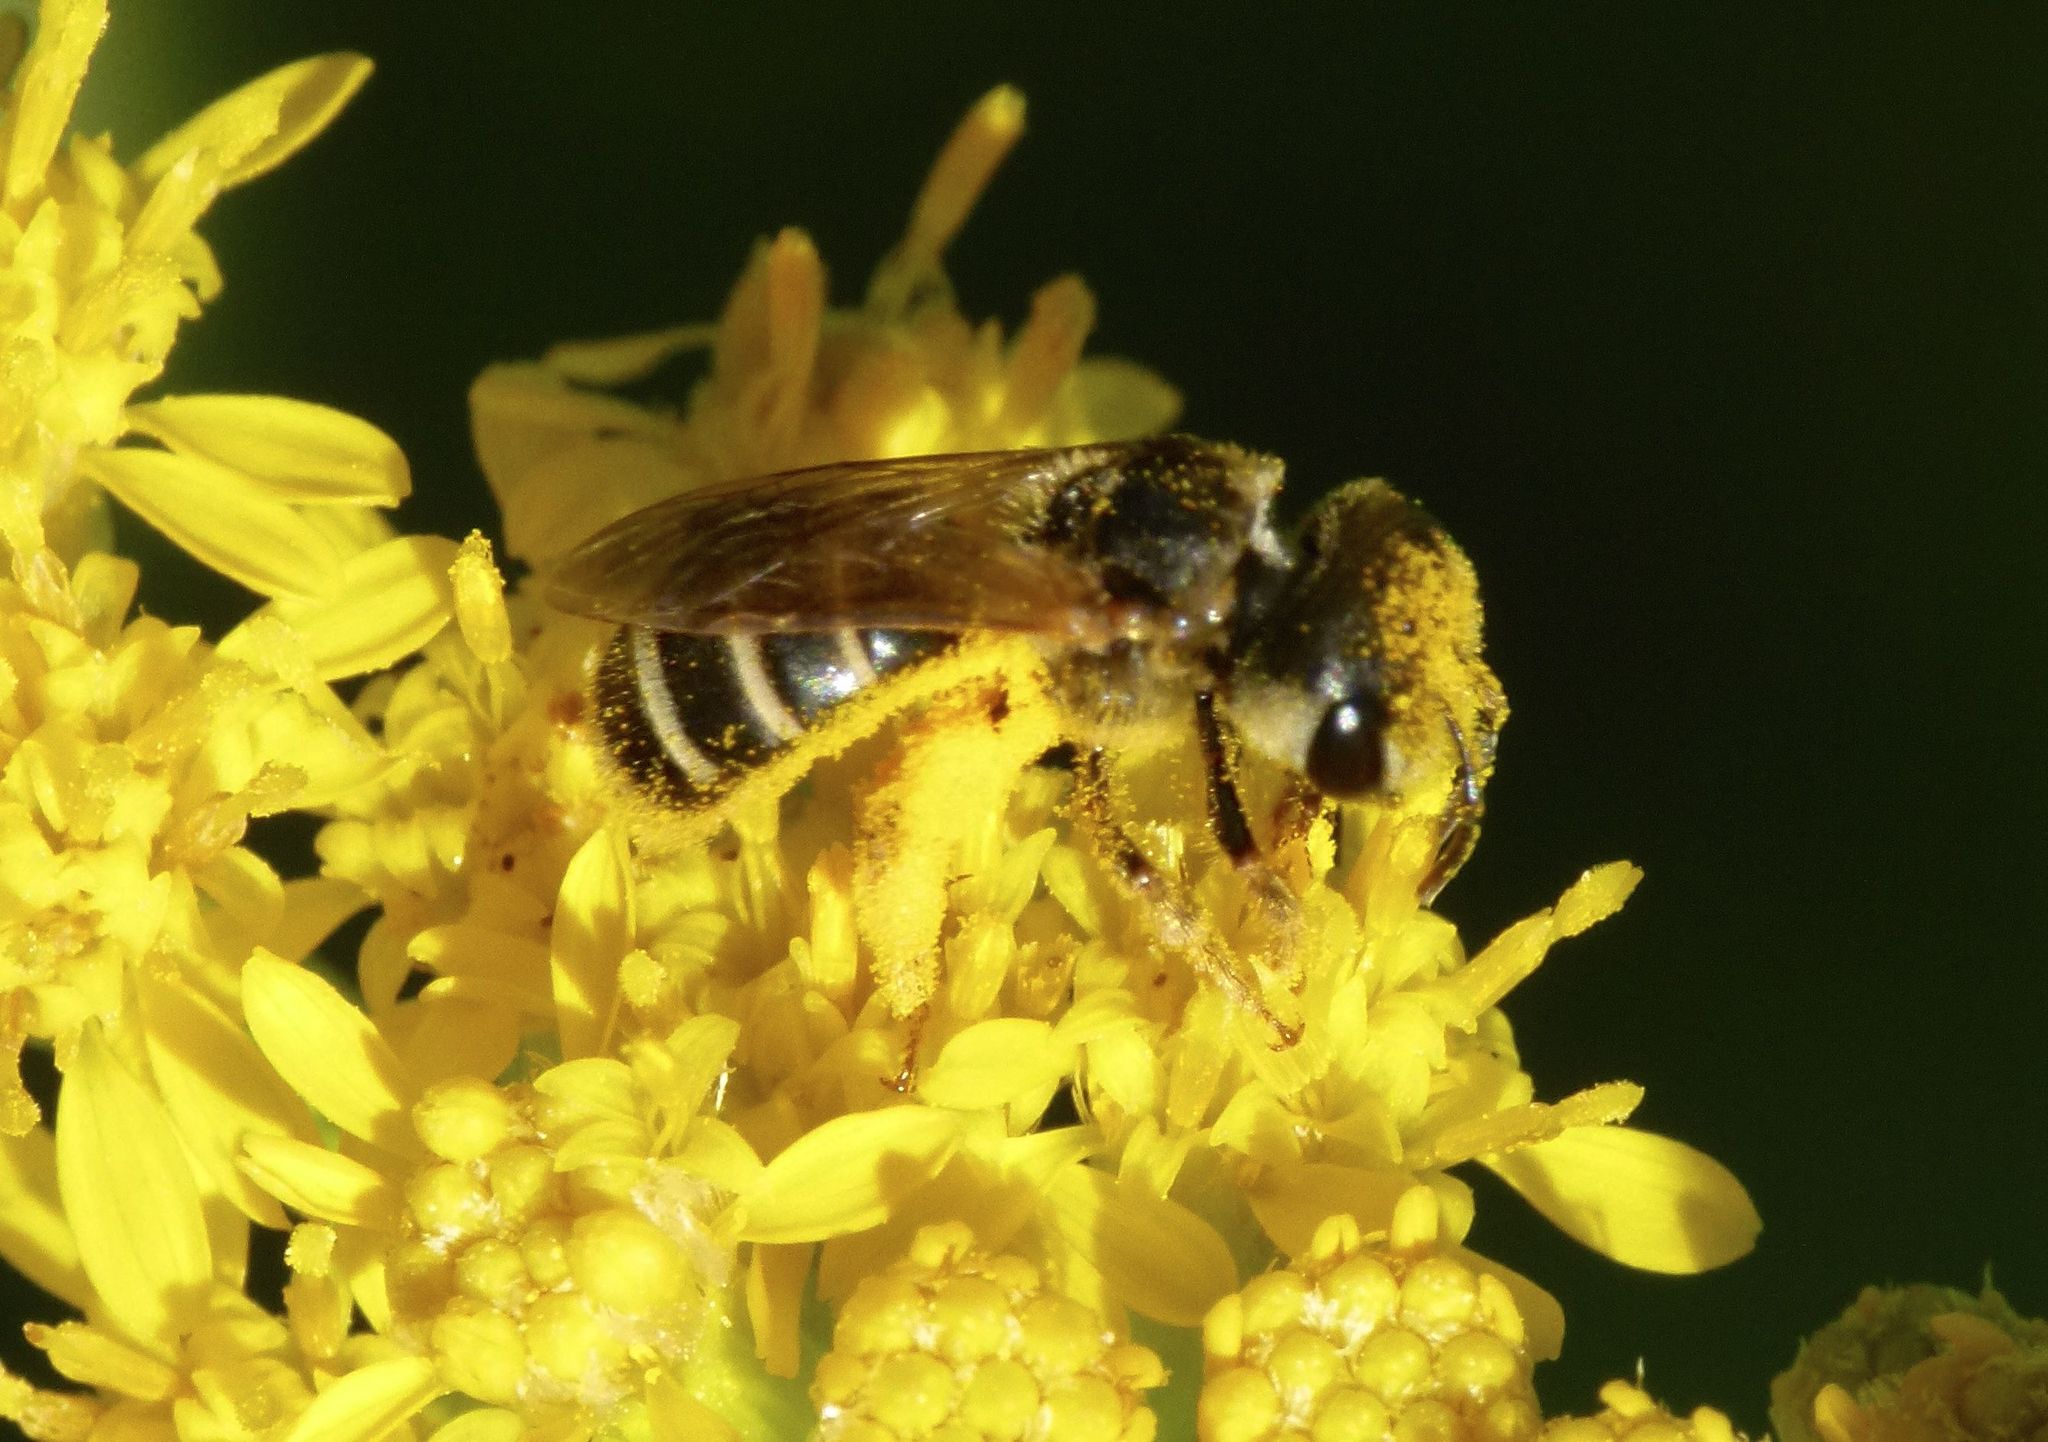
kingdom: Animalia
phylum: Arthropoda
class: Insecta
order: Hymenoptera
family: Halictidae
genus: Halictus
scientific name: Halictus ligatus
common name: Ligated furrow bee
